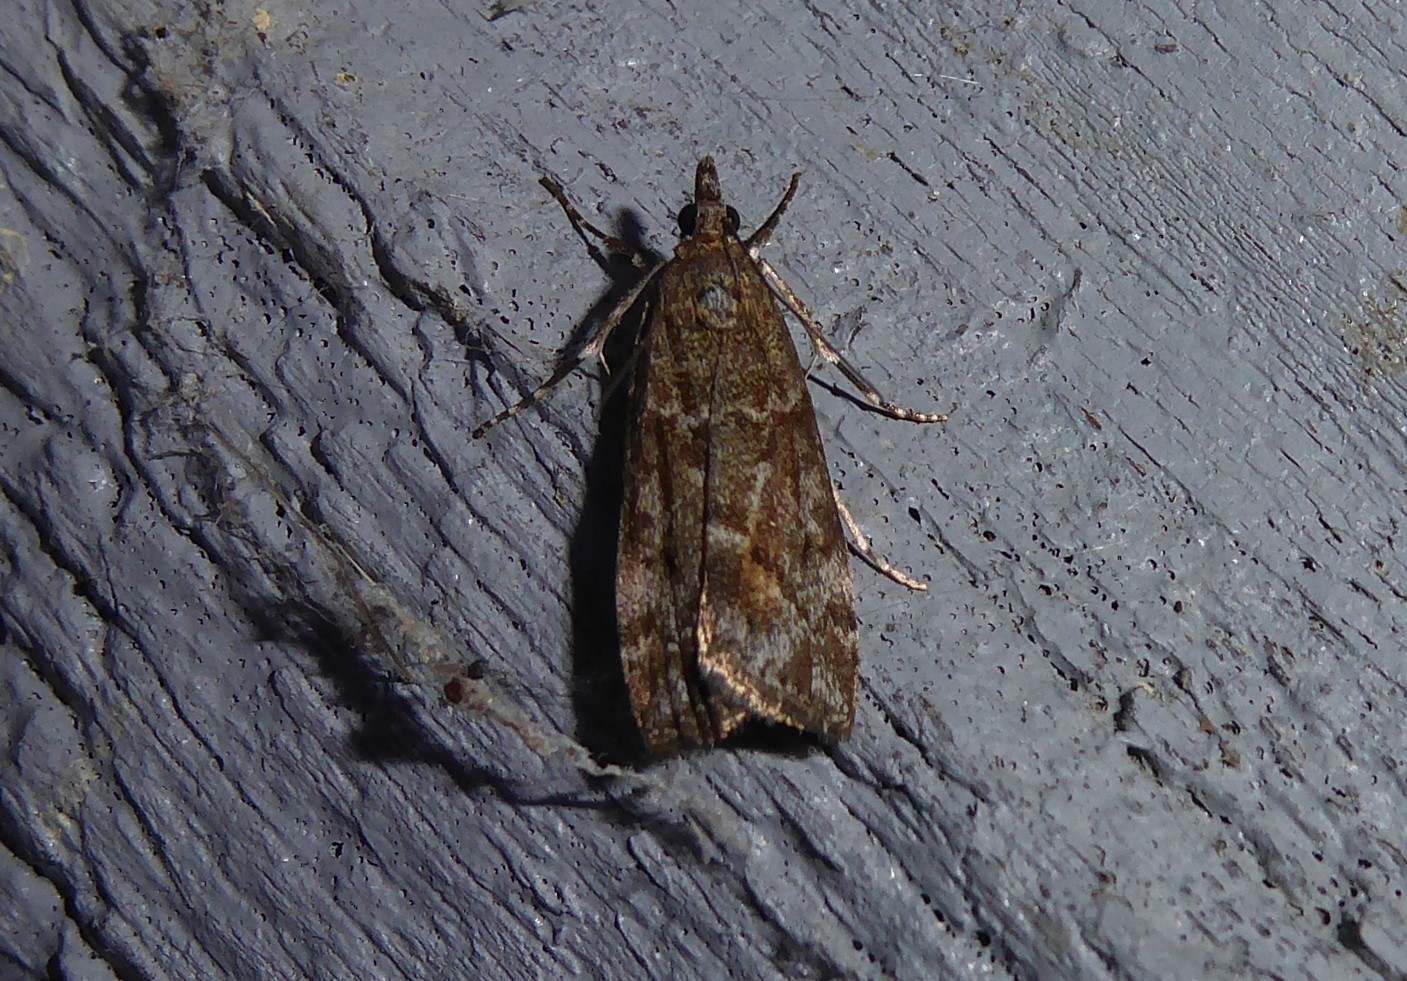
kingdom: Animalia
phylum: Arthropoda
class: Insecta
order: Lepidoptera
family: Crambidae
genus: Eudonia
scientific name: Eudonia submarginalis
